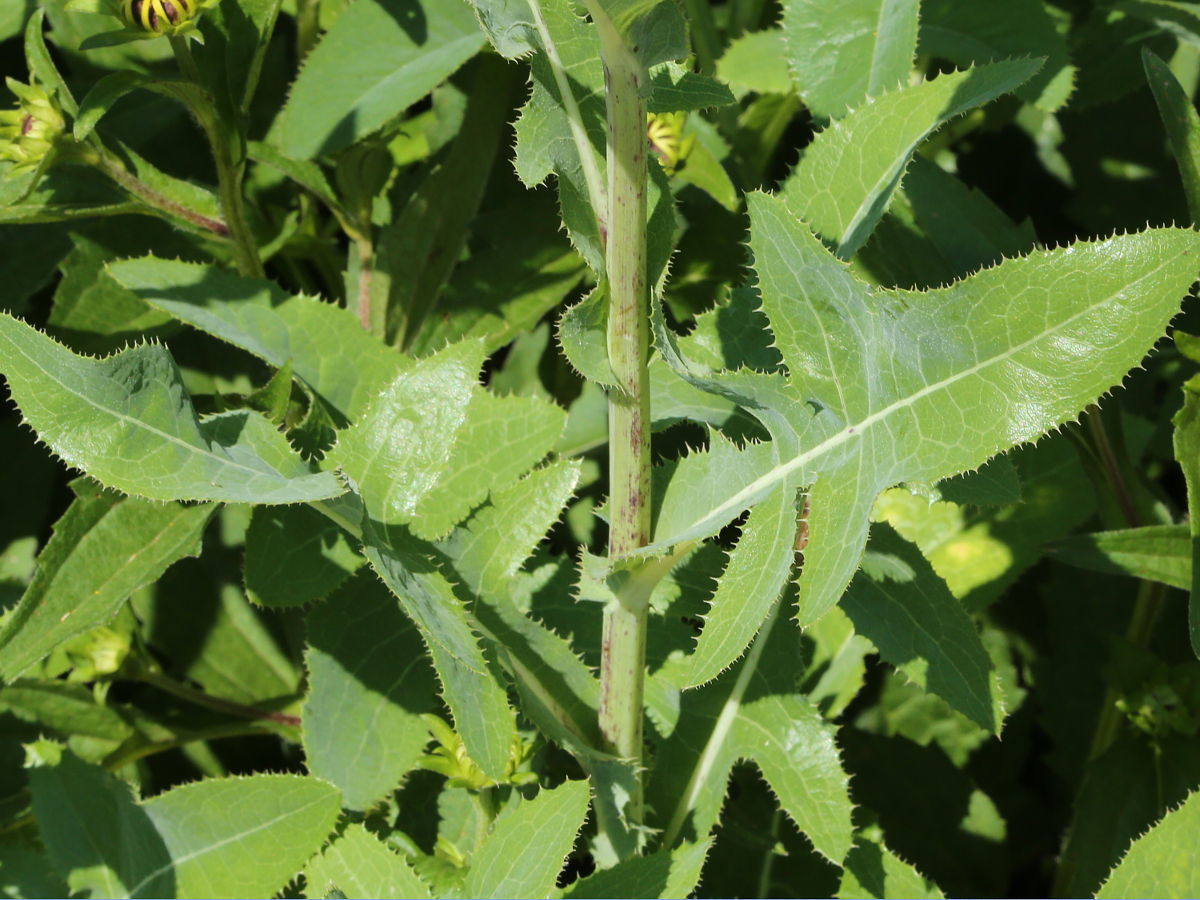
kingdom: Plantae
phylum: Tracheophyta
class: Magnoliopsida
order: Asterales
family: Asteraceae
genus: Sonchus
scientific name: Sonchus arvensis
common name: Perennial sow-thistle
